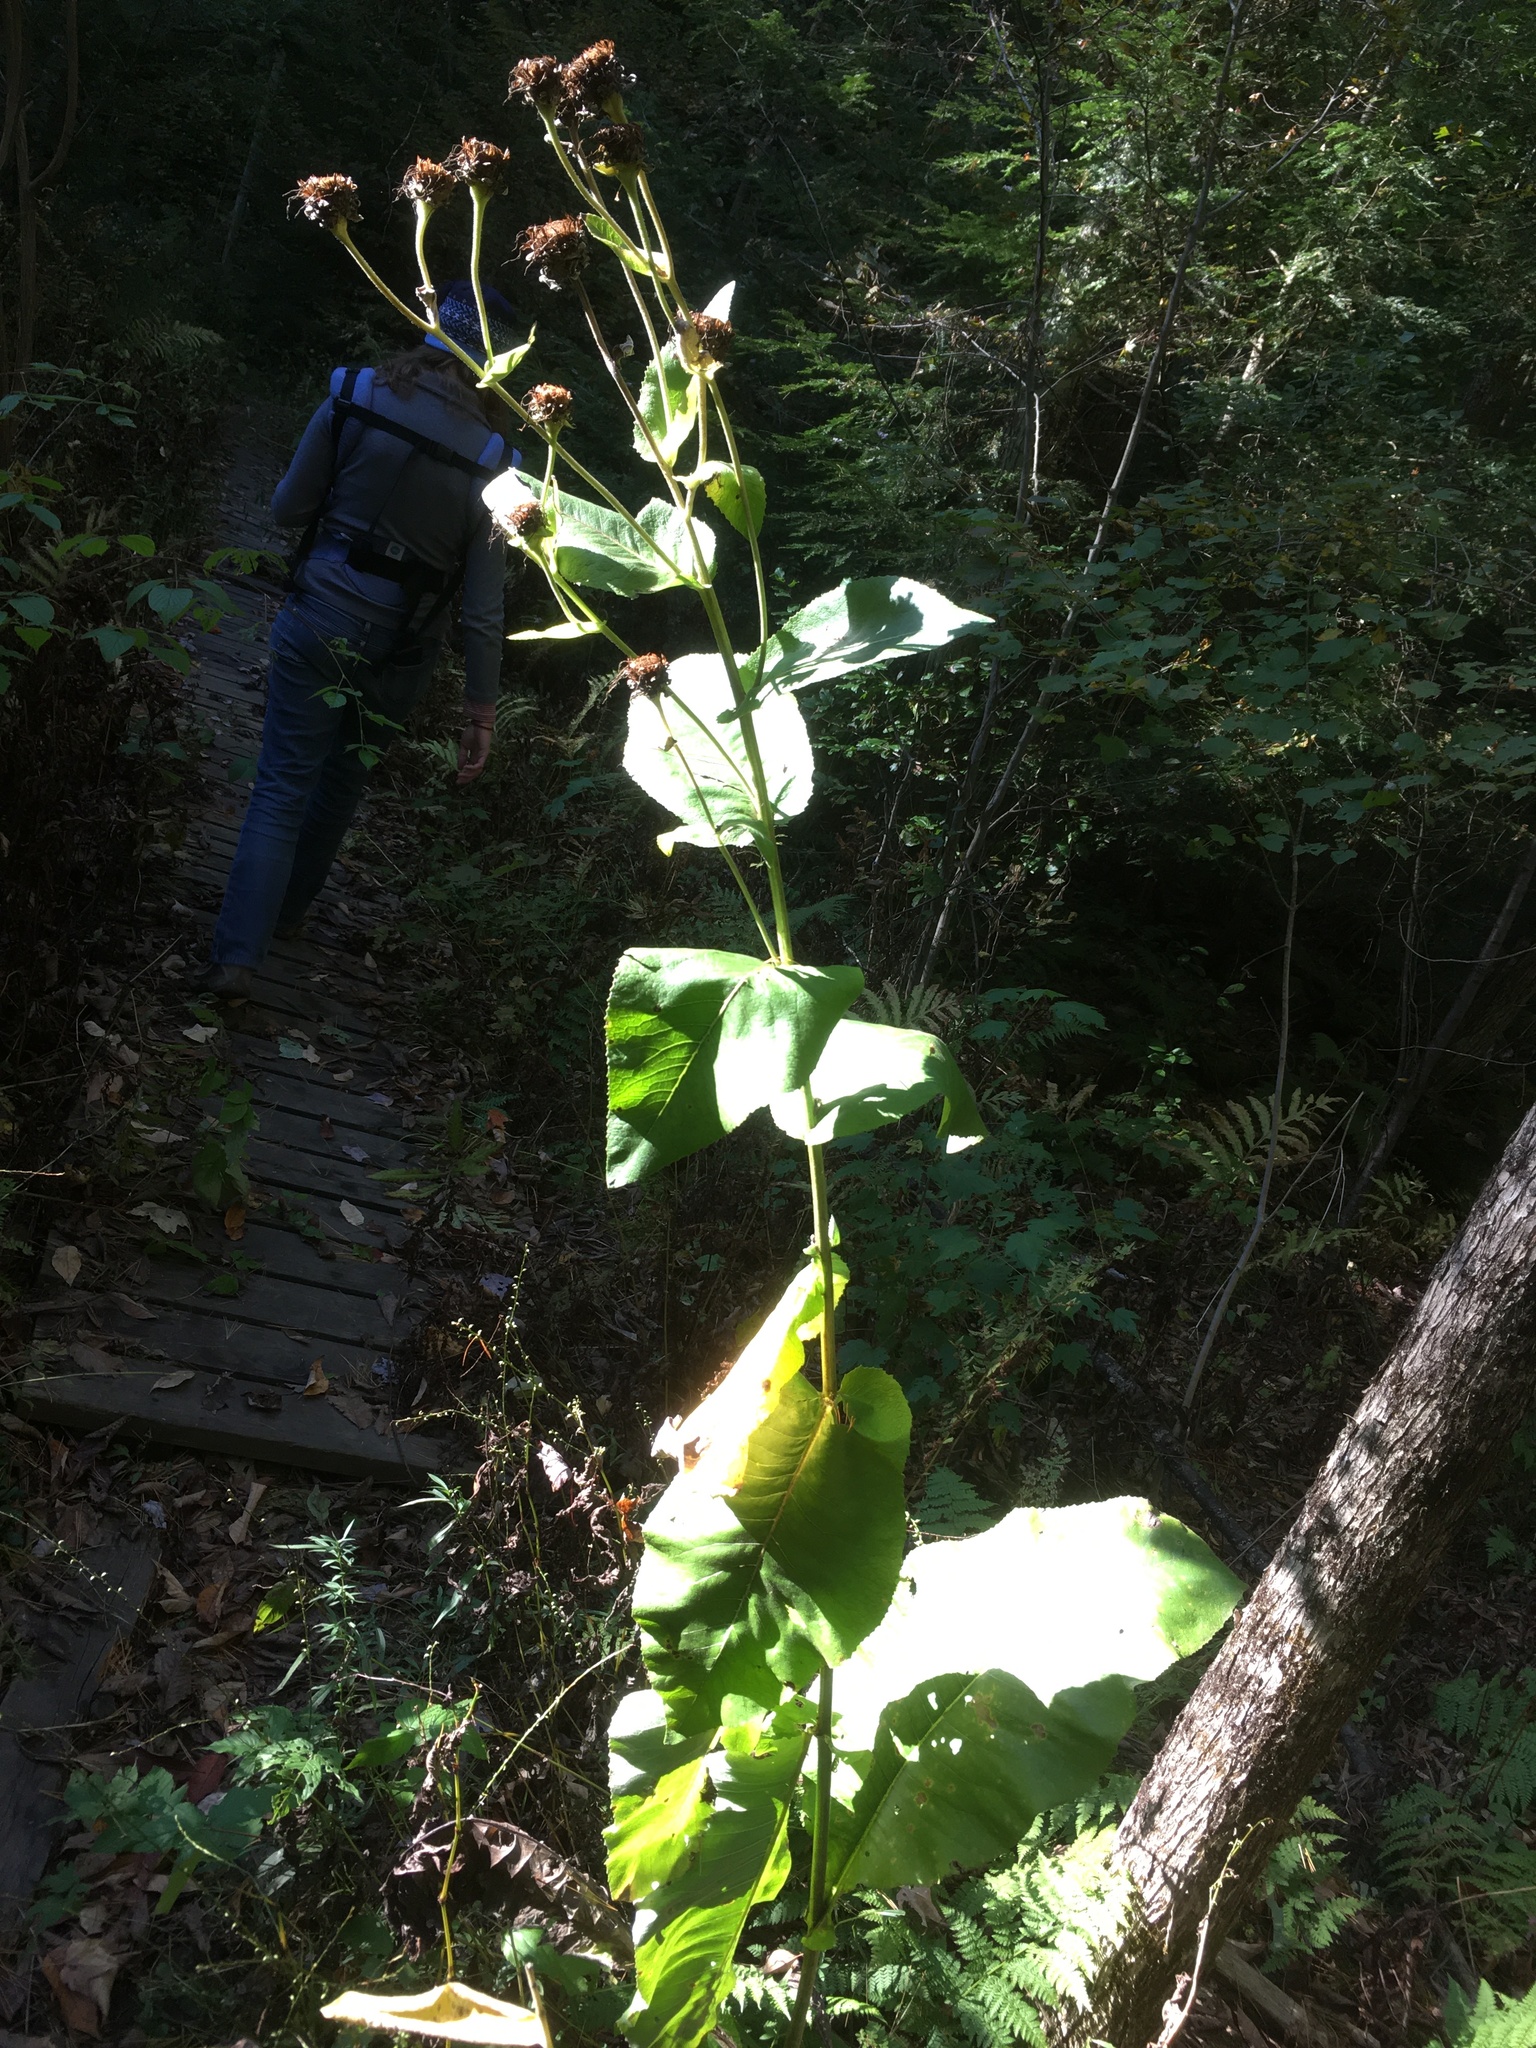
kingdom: Plantae
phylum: Tracheophyta
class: Magnoliopsida
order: Asterales
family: Asteraceae
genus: Inula
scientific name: Inula helenium
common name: Elecampane
